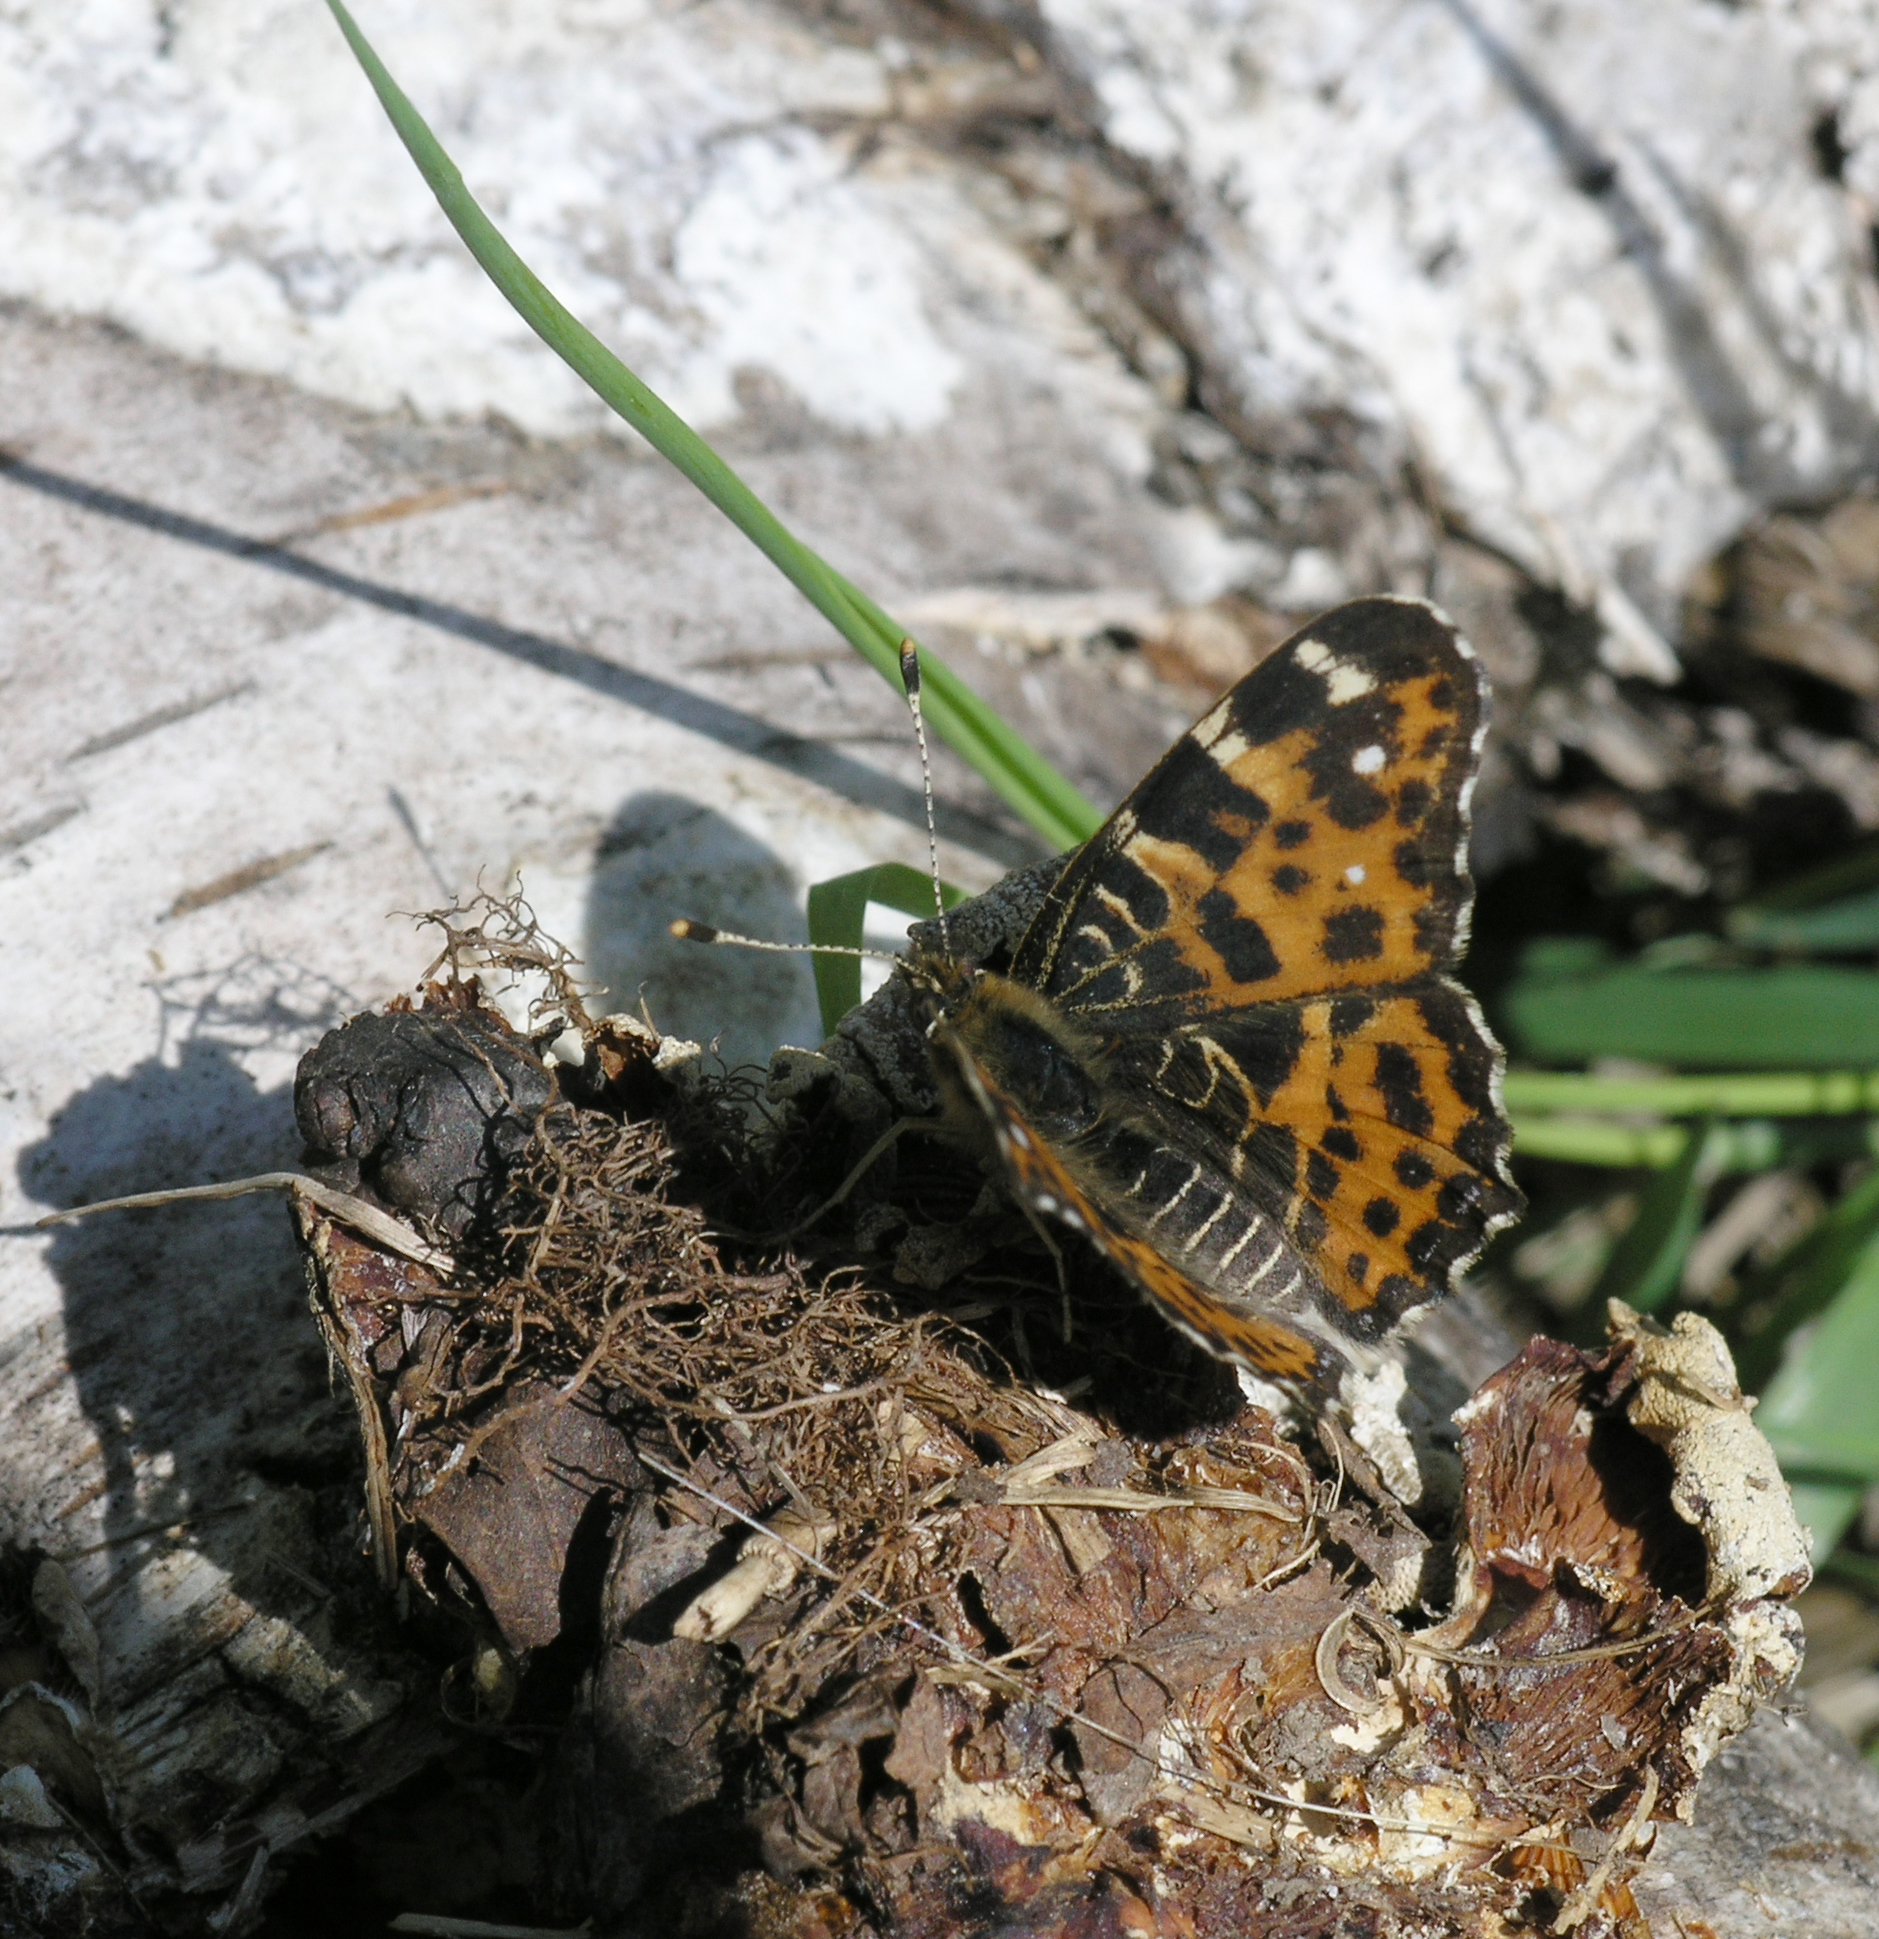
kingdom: Animalia
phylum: Arthropoda
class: Insecta
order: Lepidoptera
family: Nymphalidae
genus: Araschnia
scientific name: Araschnia levana
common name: Map butterfly
